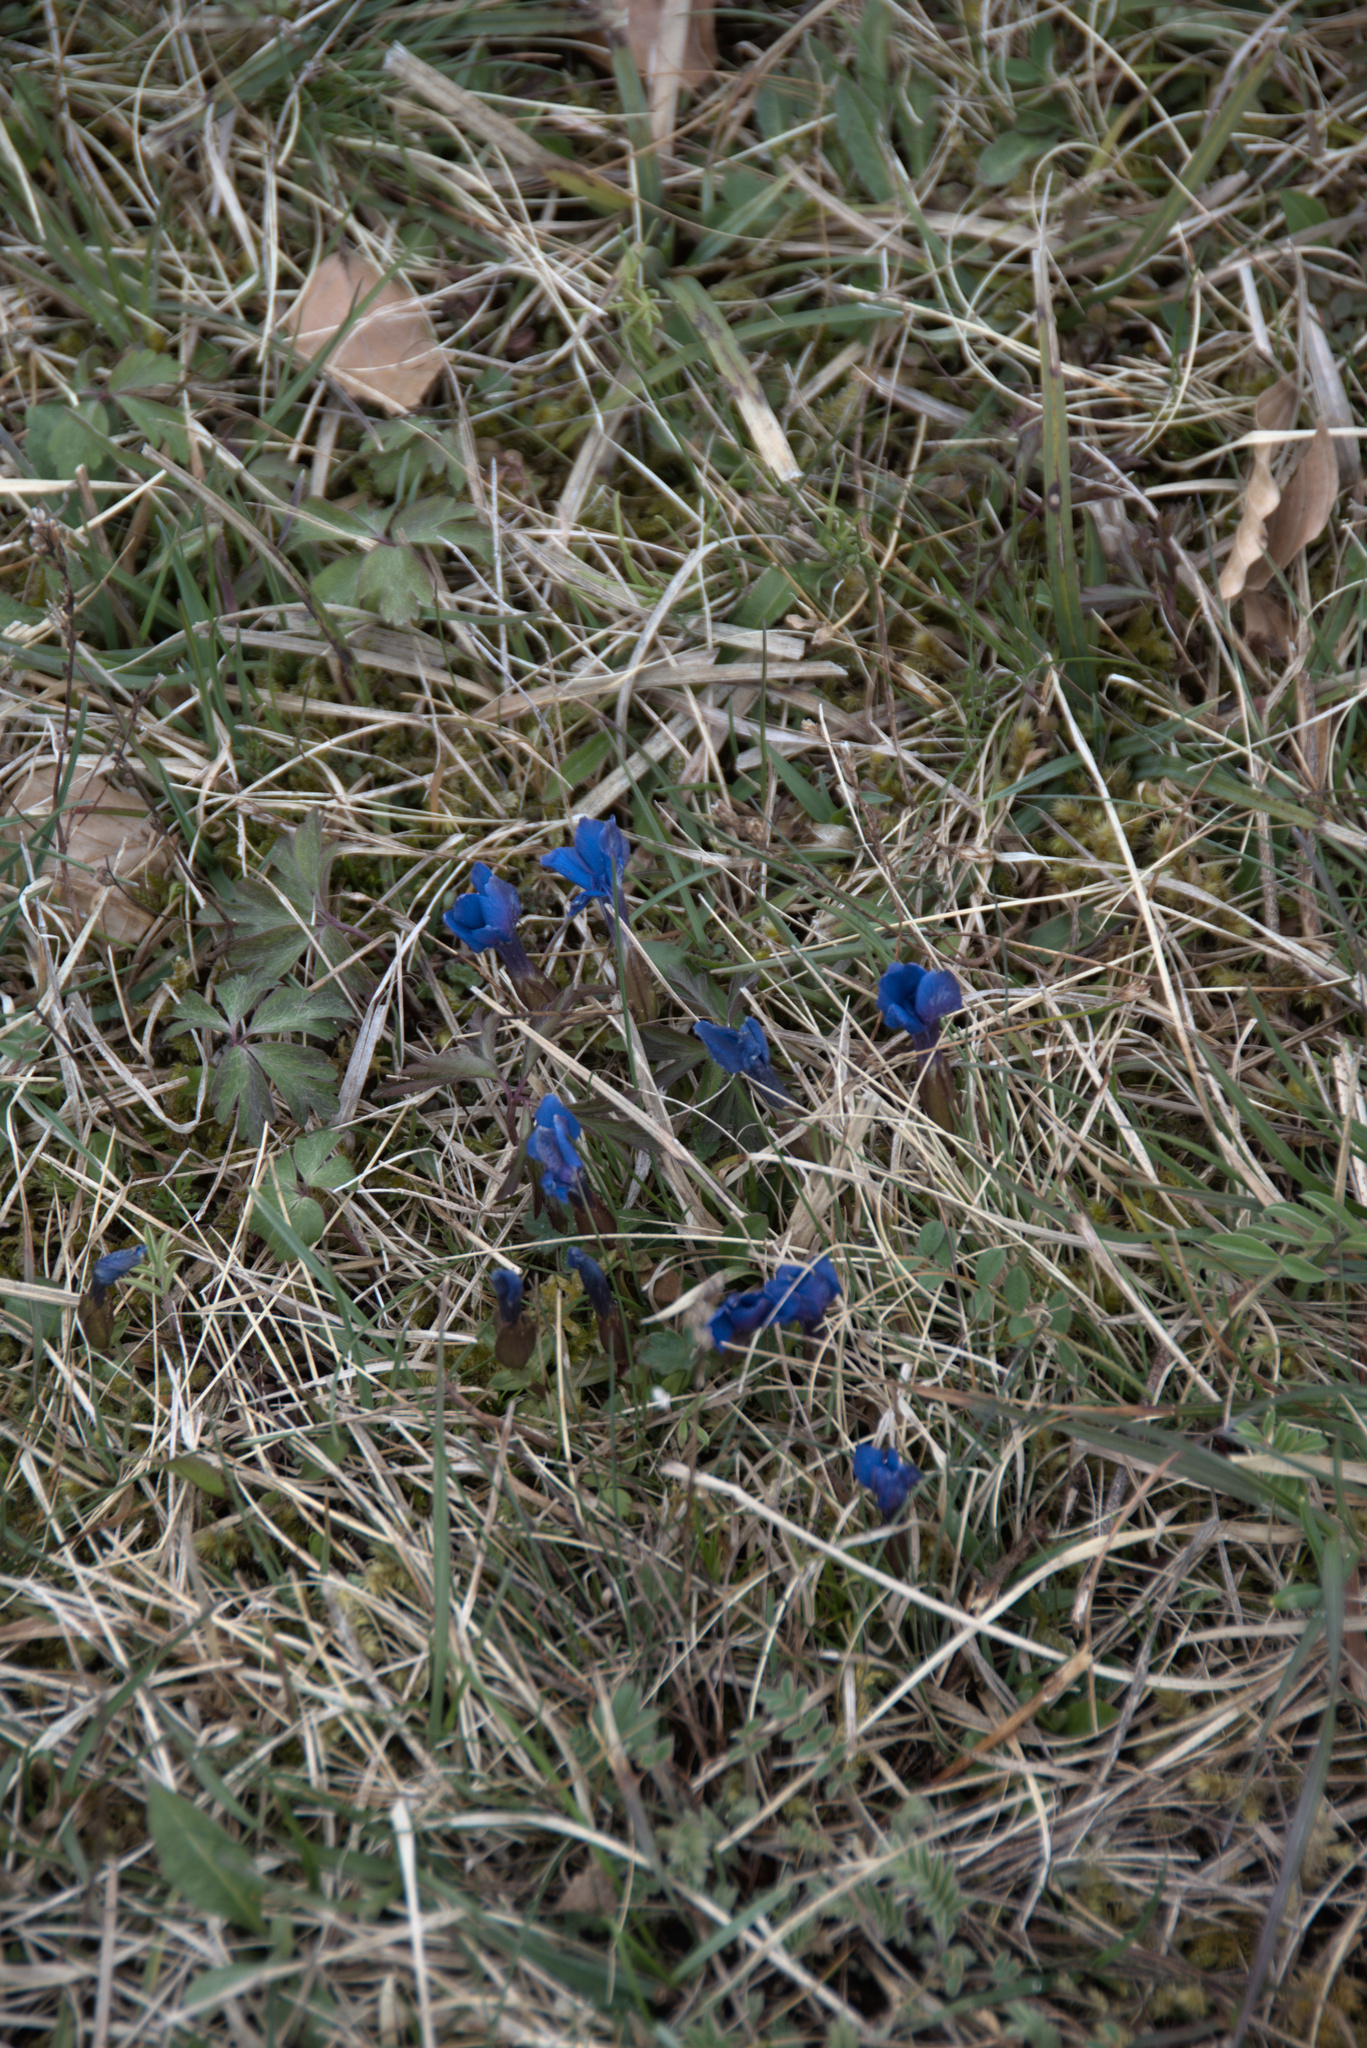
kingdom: Plantae
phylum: Tracheophyta
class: Magnoliopsida
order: Gentianales
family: Gentianaceae
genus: Gentiana
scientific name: Gentiana verna
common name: Spring gentian
